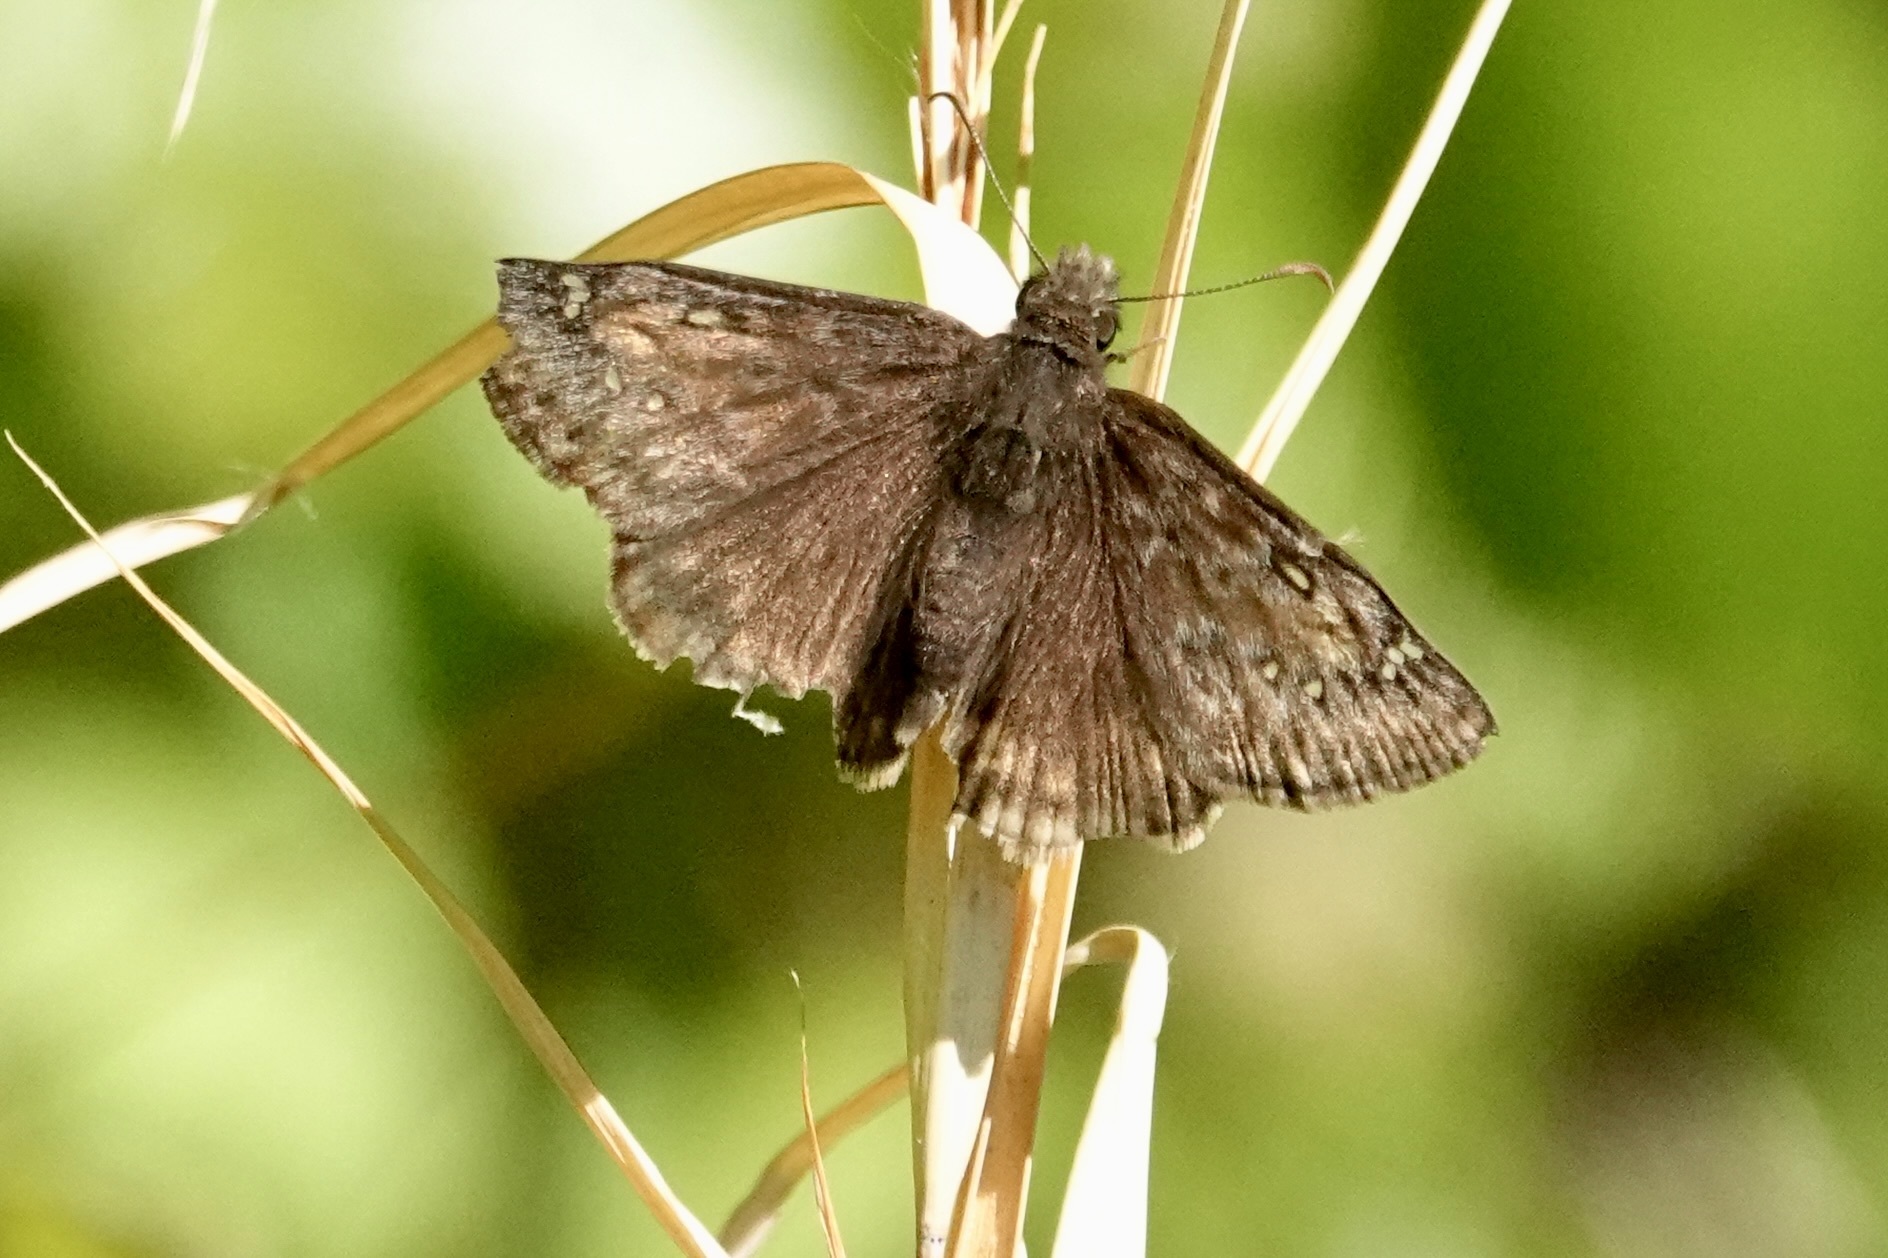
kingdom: Animalia
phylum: Arthropoda
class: Insecta
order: Lepidoptera
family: Hesperiidae
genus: Erynnis
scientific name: Erynnis juvenalis
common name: Juvenal's duskywing
